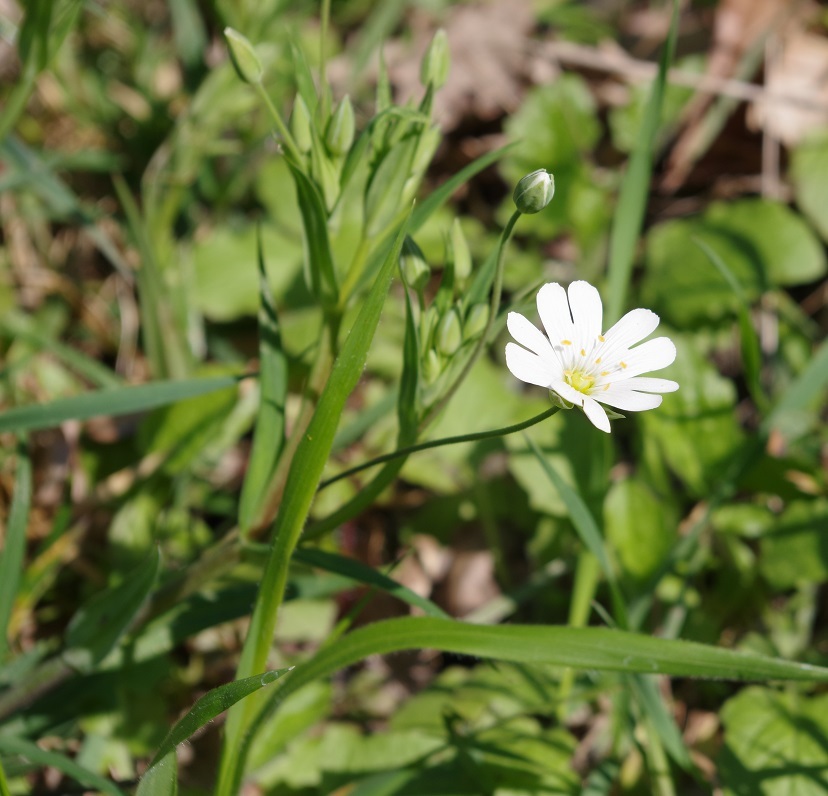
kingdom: Plantae
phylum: Tracheophyta
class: Magnoliopsida
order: Caryophyllales
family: Caryophyllaceae
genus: Rabelera
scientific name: Rabelera holostea
